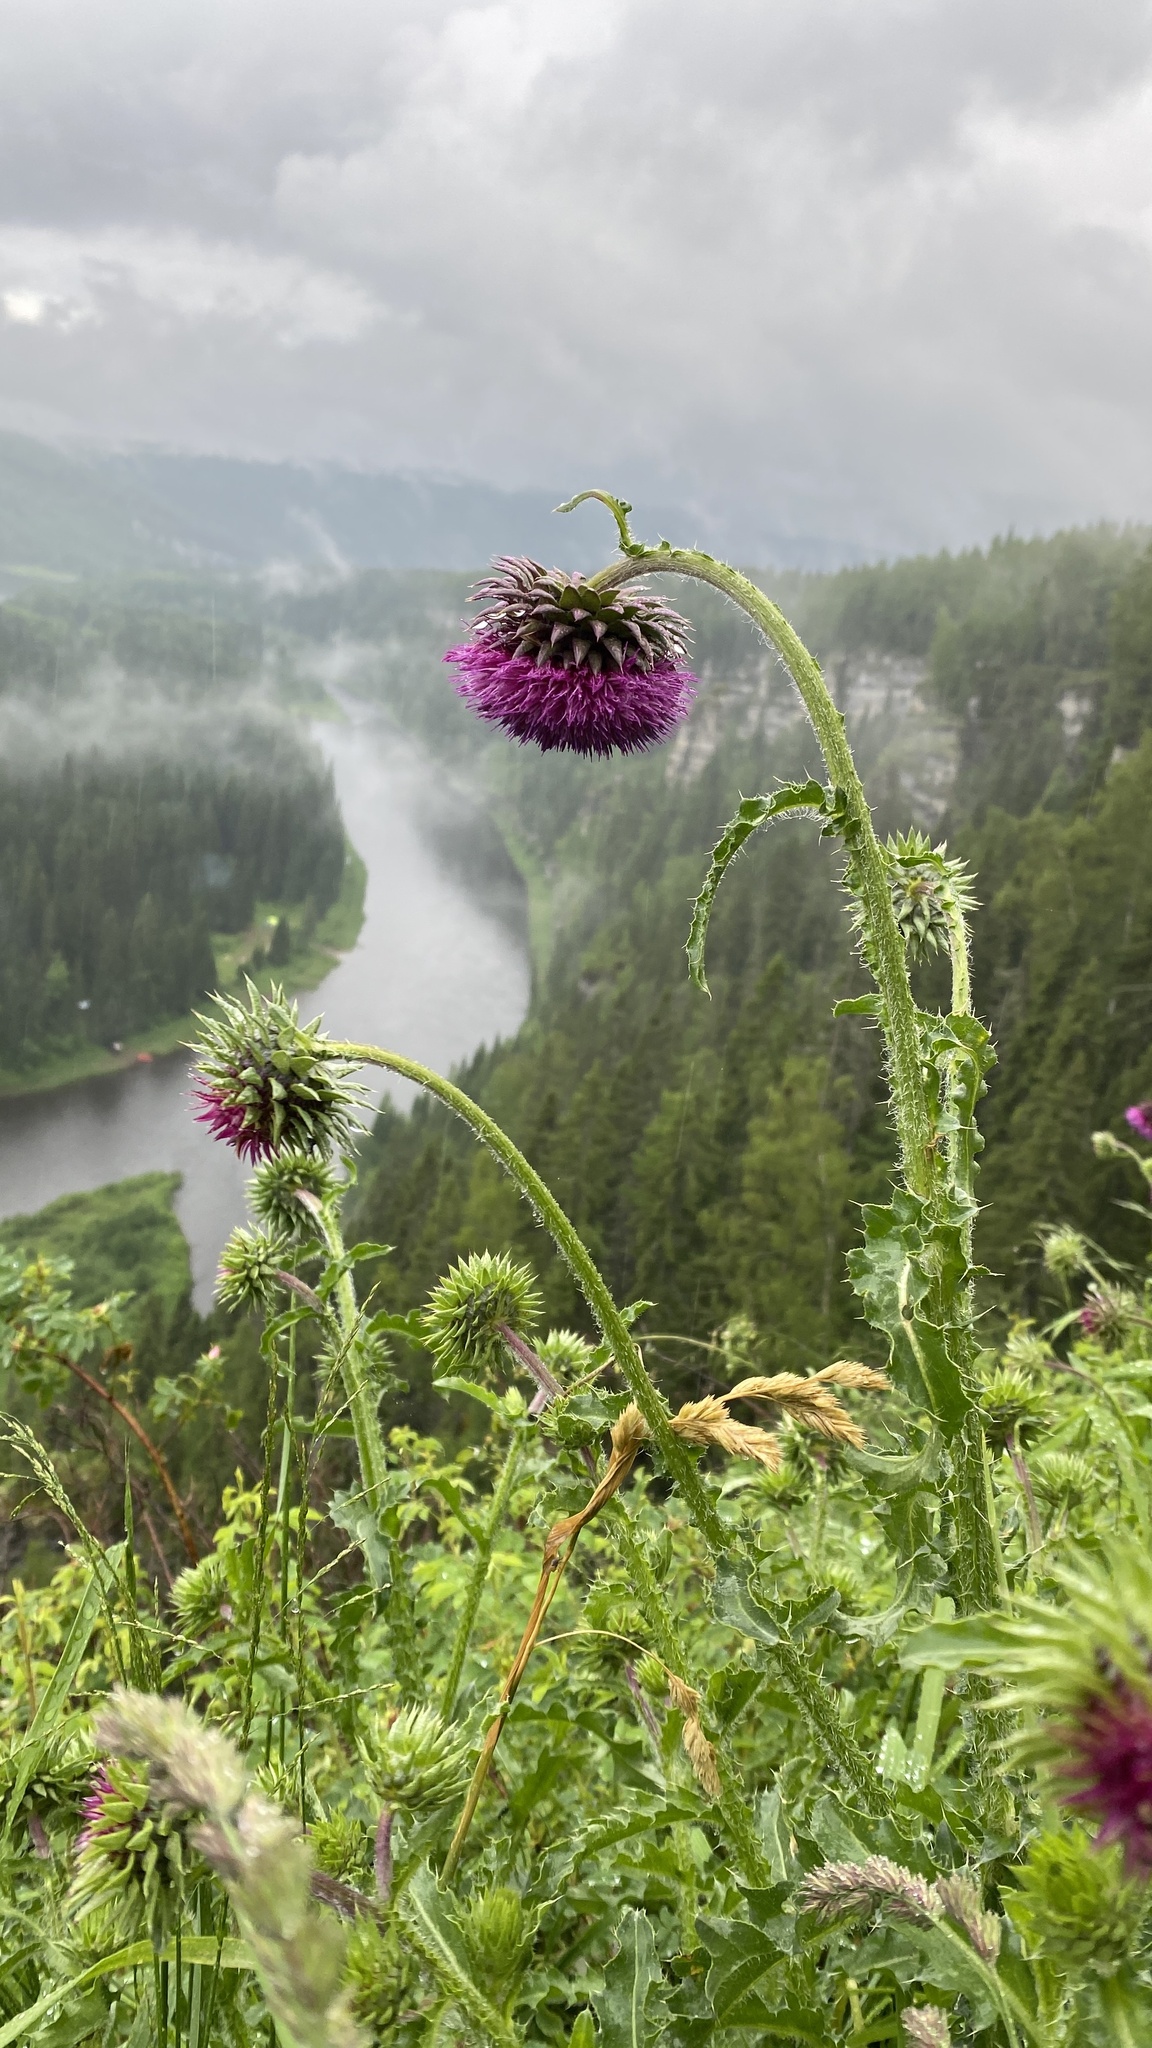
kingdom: Plantae
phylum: Tracheophyta
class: Magnoliopsida
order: Asterales
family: Asteraceae
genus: Carduus
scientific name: Carduus nutans
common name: Musk thistle
